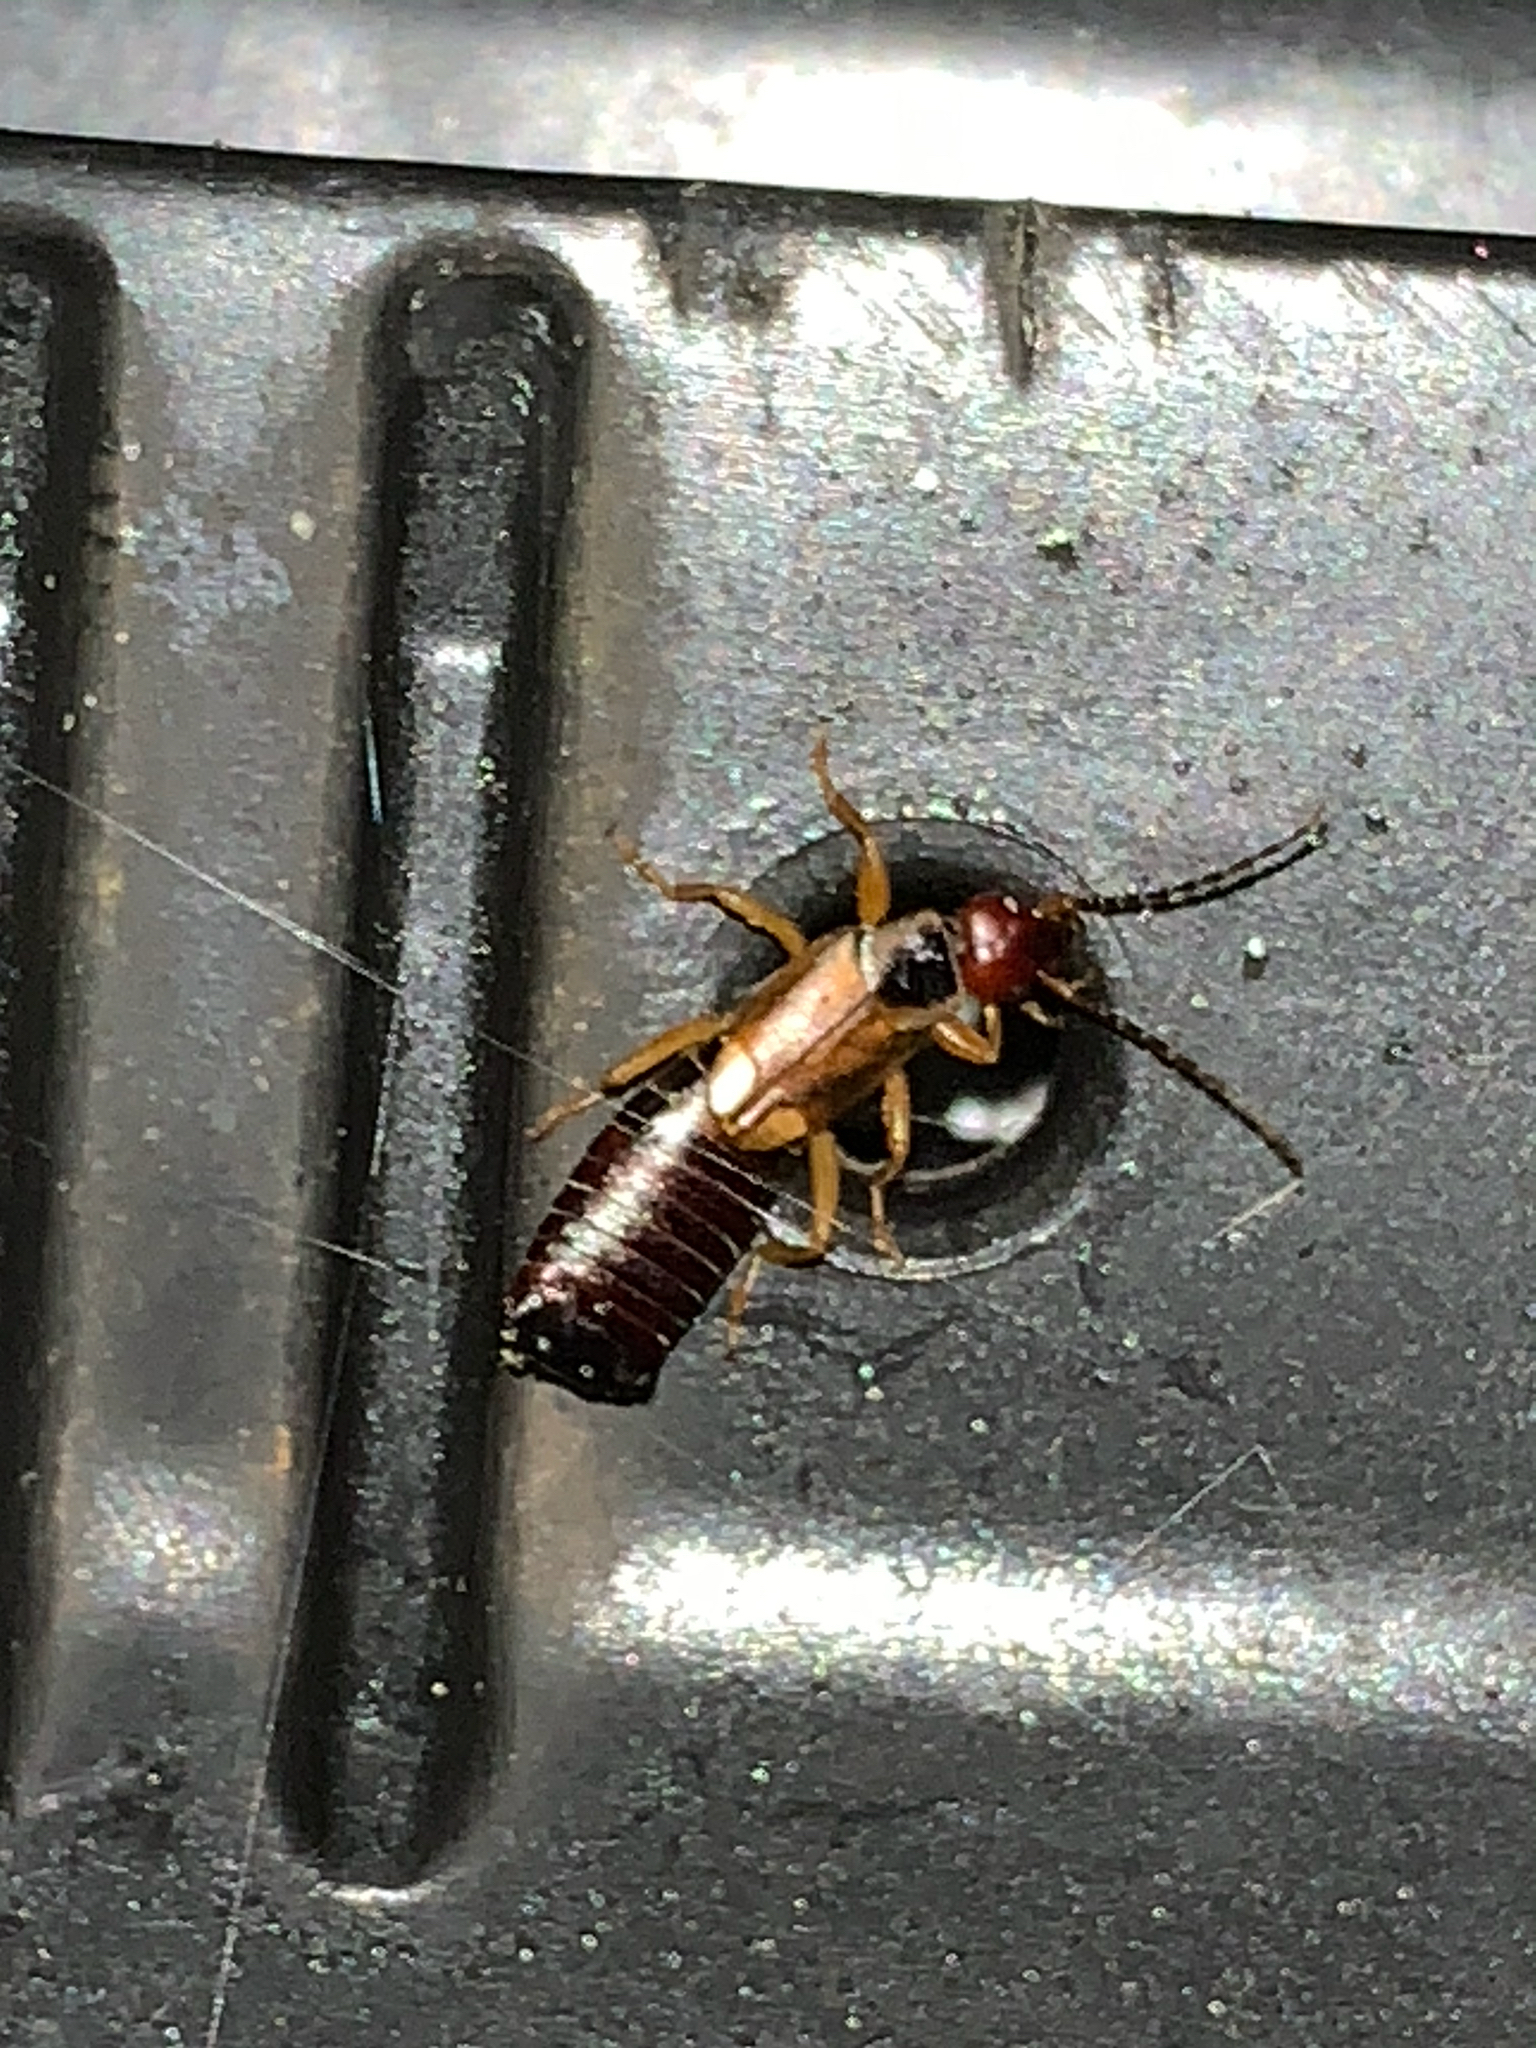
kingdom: Animalia
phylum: Arthropoda
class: Insecta
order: Dermaptera
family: Forficulidae
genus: Forficula
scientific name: Forficula
